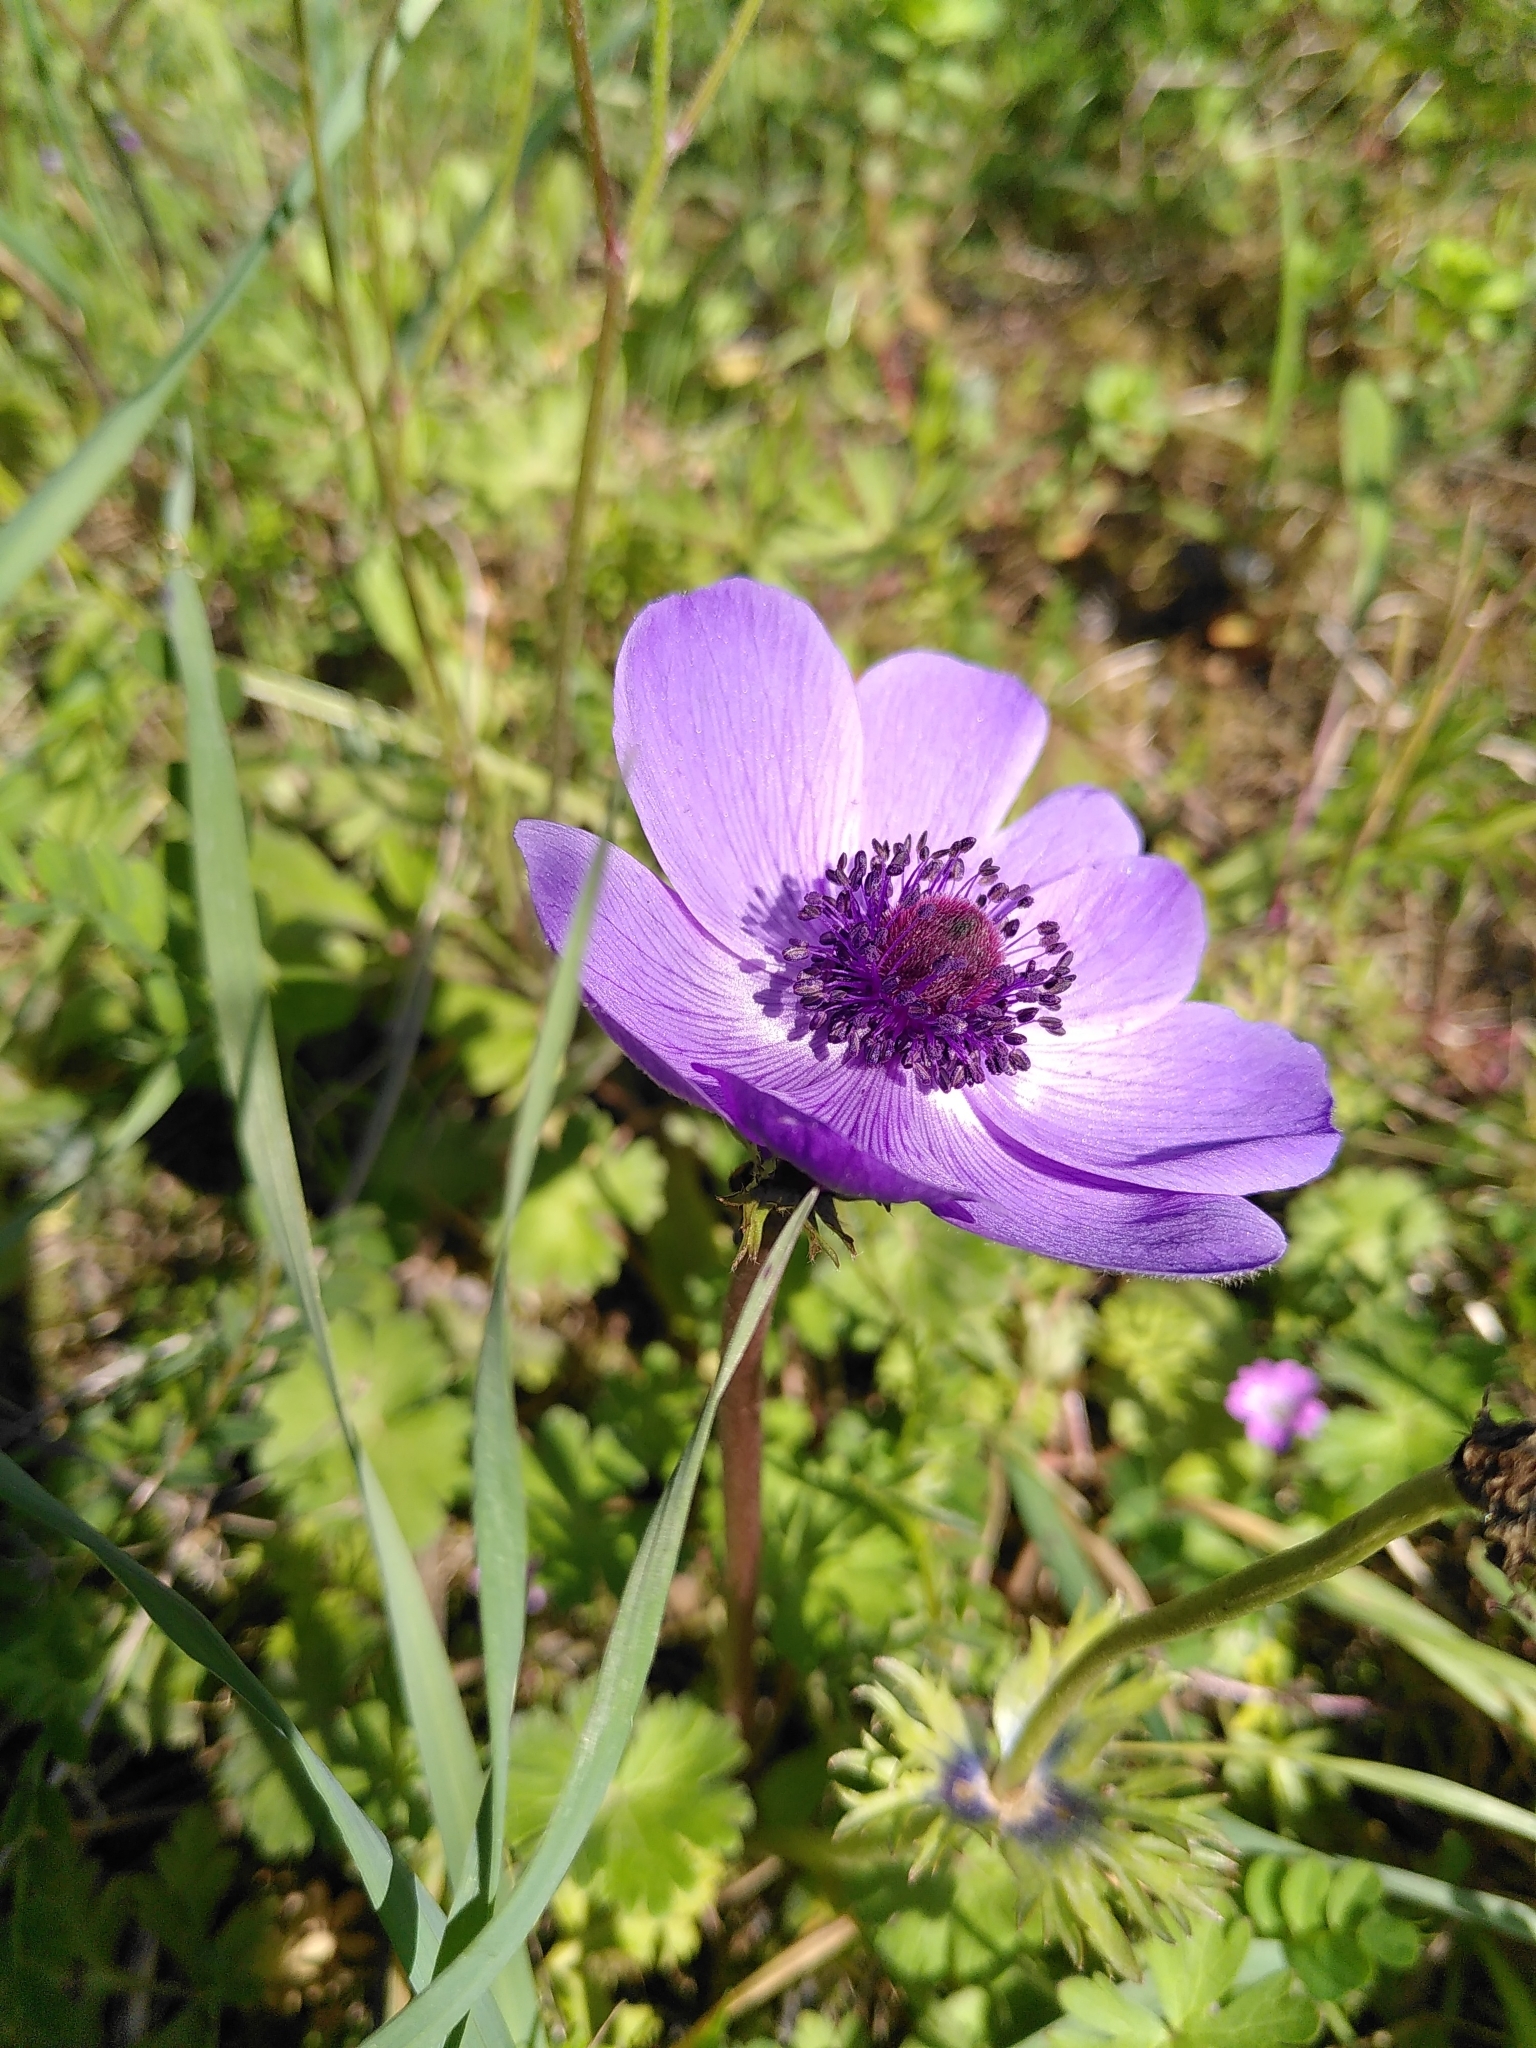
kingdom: Plantae
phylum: Tracheophyta
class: Magnoliopsida
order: Ranunculales
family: Ranunculaceae
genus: Anemone
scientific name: Anemone coronaria
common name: Poppy anemone
